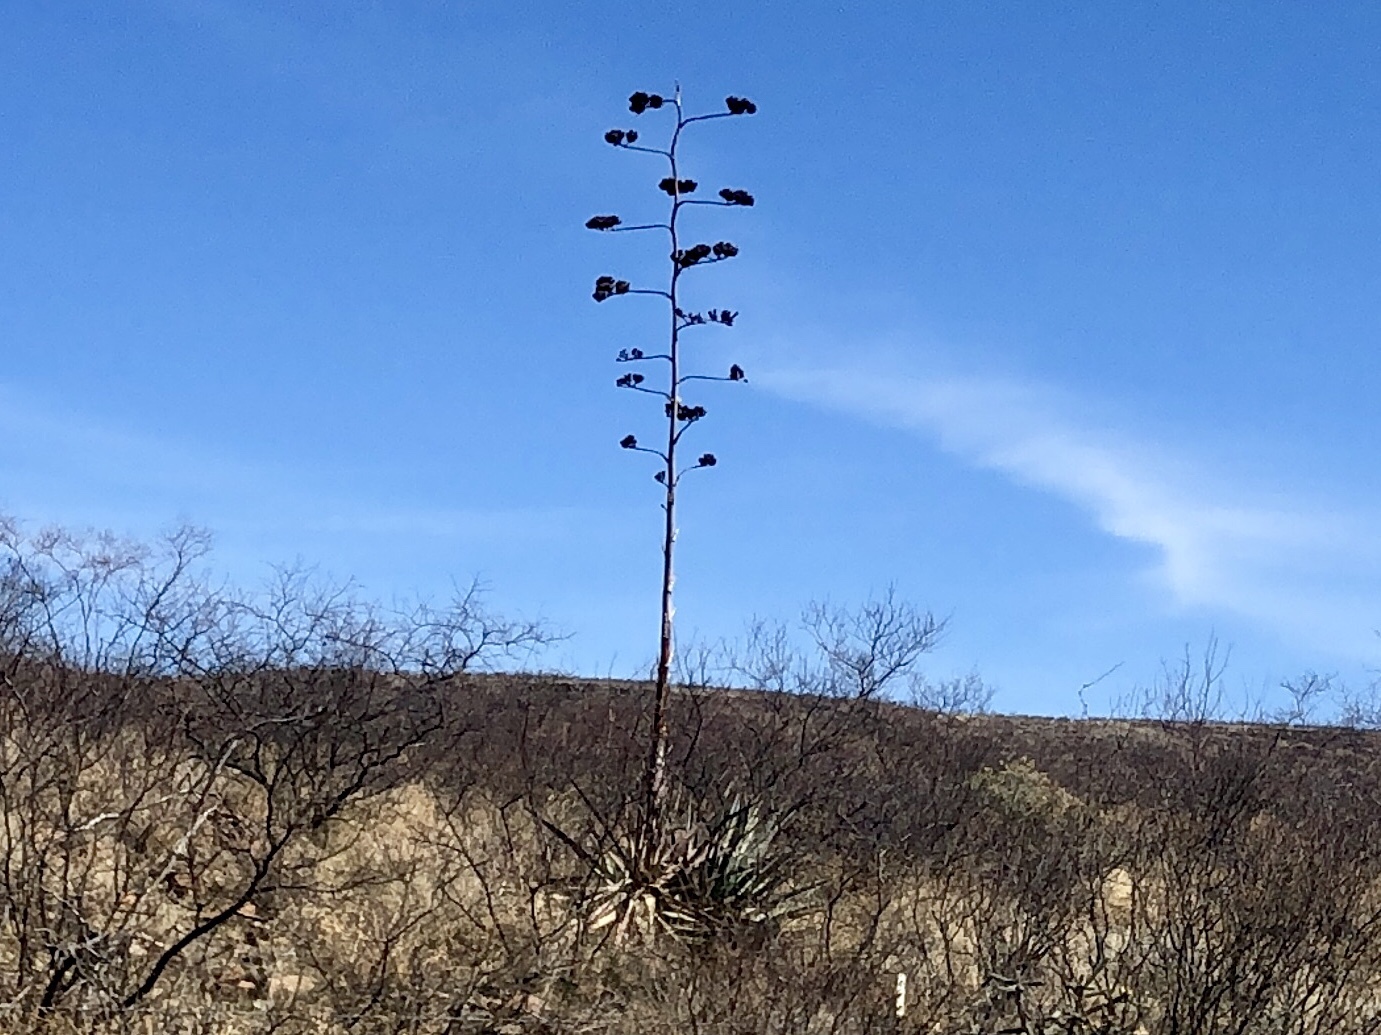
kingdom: Plantae
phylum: Tracheophyta
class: Liliopsida
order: Asparagales
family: Asparagaceae
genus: Agave
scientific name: Agave palmeri
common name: Palmer agave
